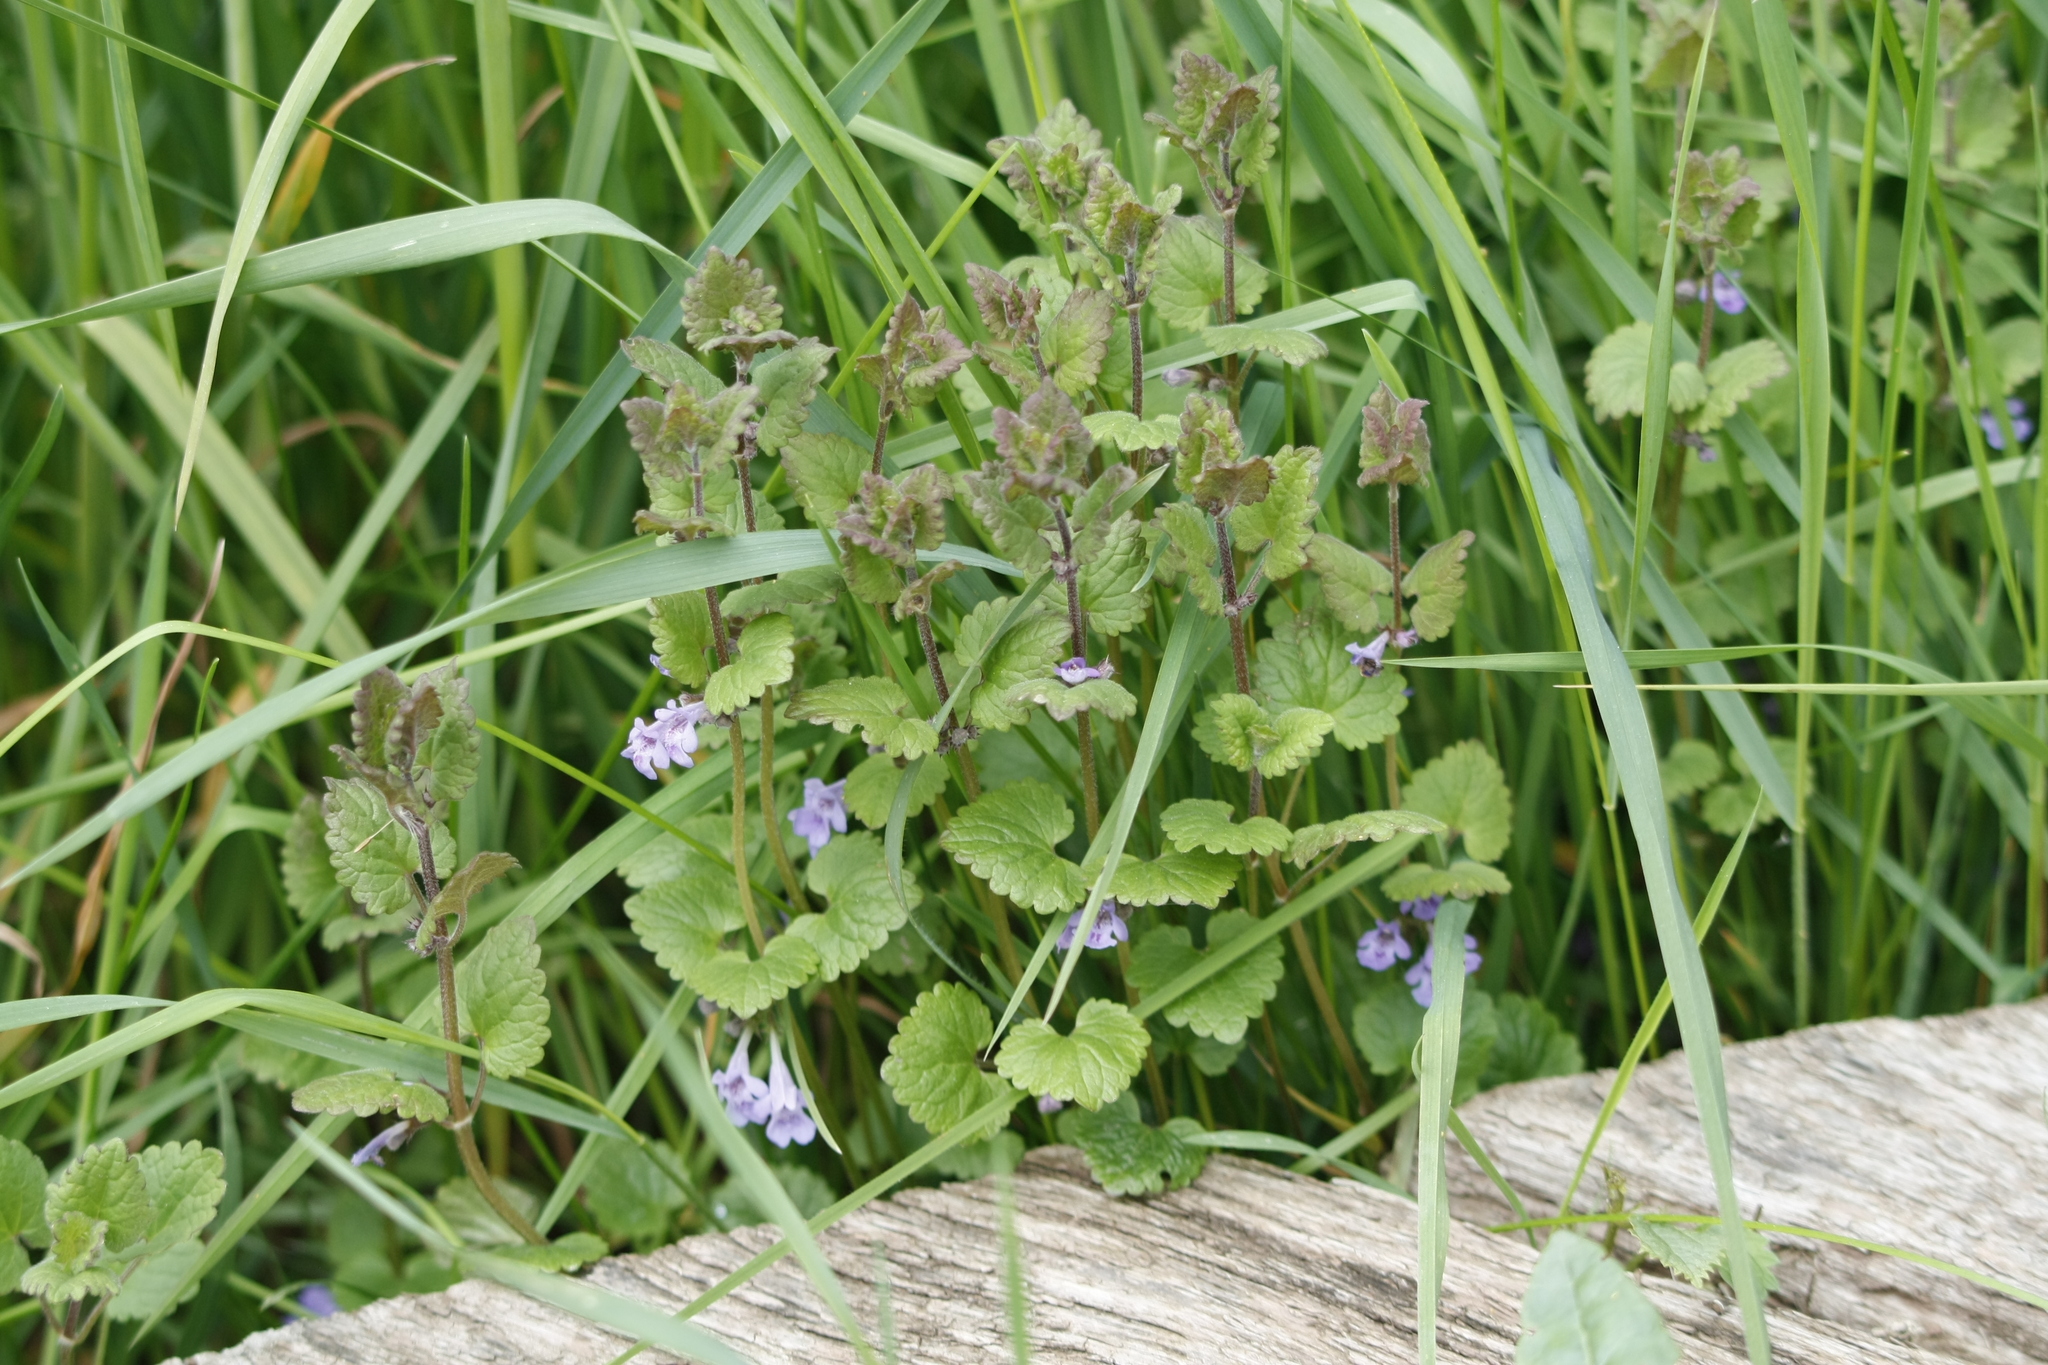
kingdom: Plantae
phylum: Tracheophyta
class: Magnoliopsida
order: Lamiales
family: Lamiaceae
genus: Glechoma
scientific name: Glechoma hederacea
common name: Ground ivy
